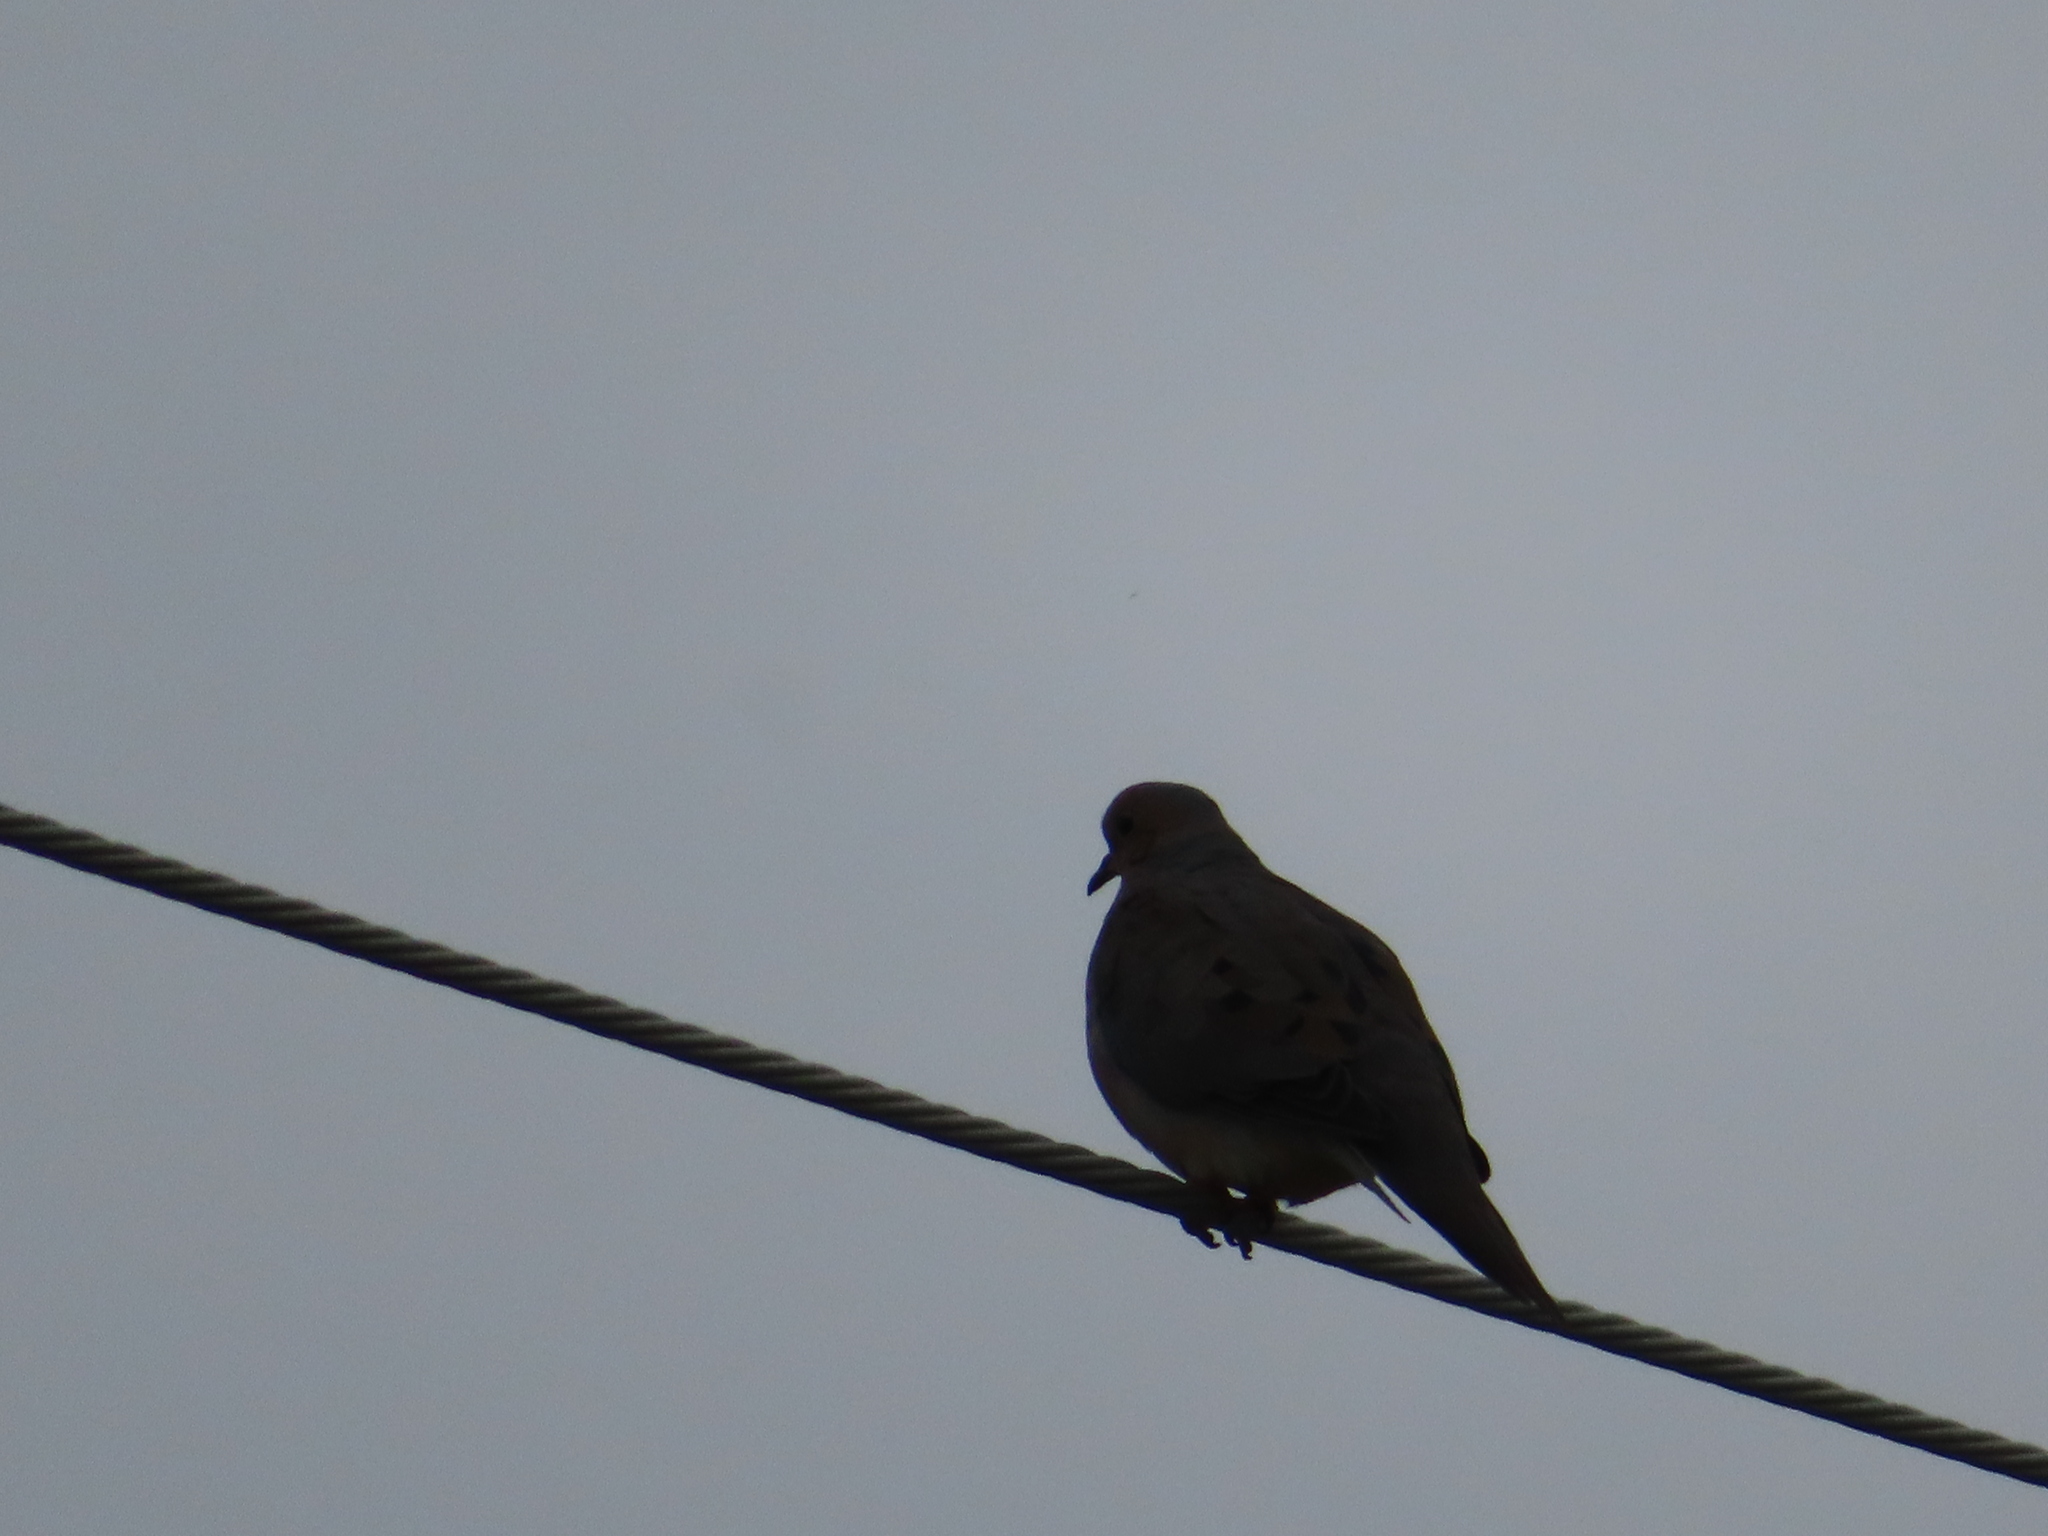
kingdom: Animalia
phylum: Chordata
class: Aves
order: Columbiformes
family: Columbidae
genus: Zenaida
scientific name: Zenaida macroura
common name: Mourning dove
